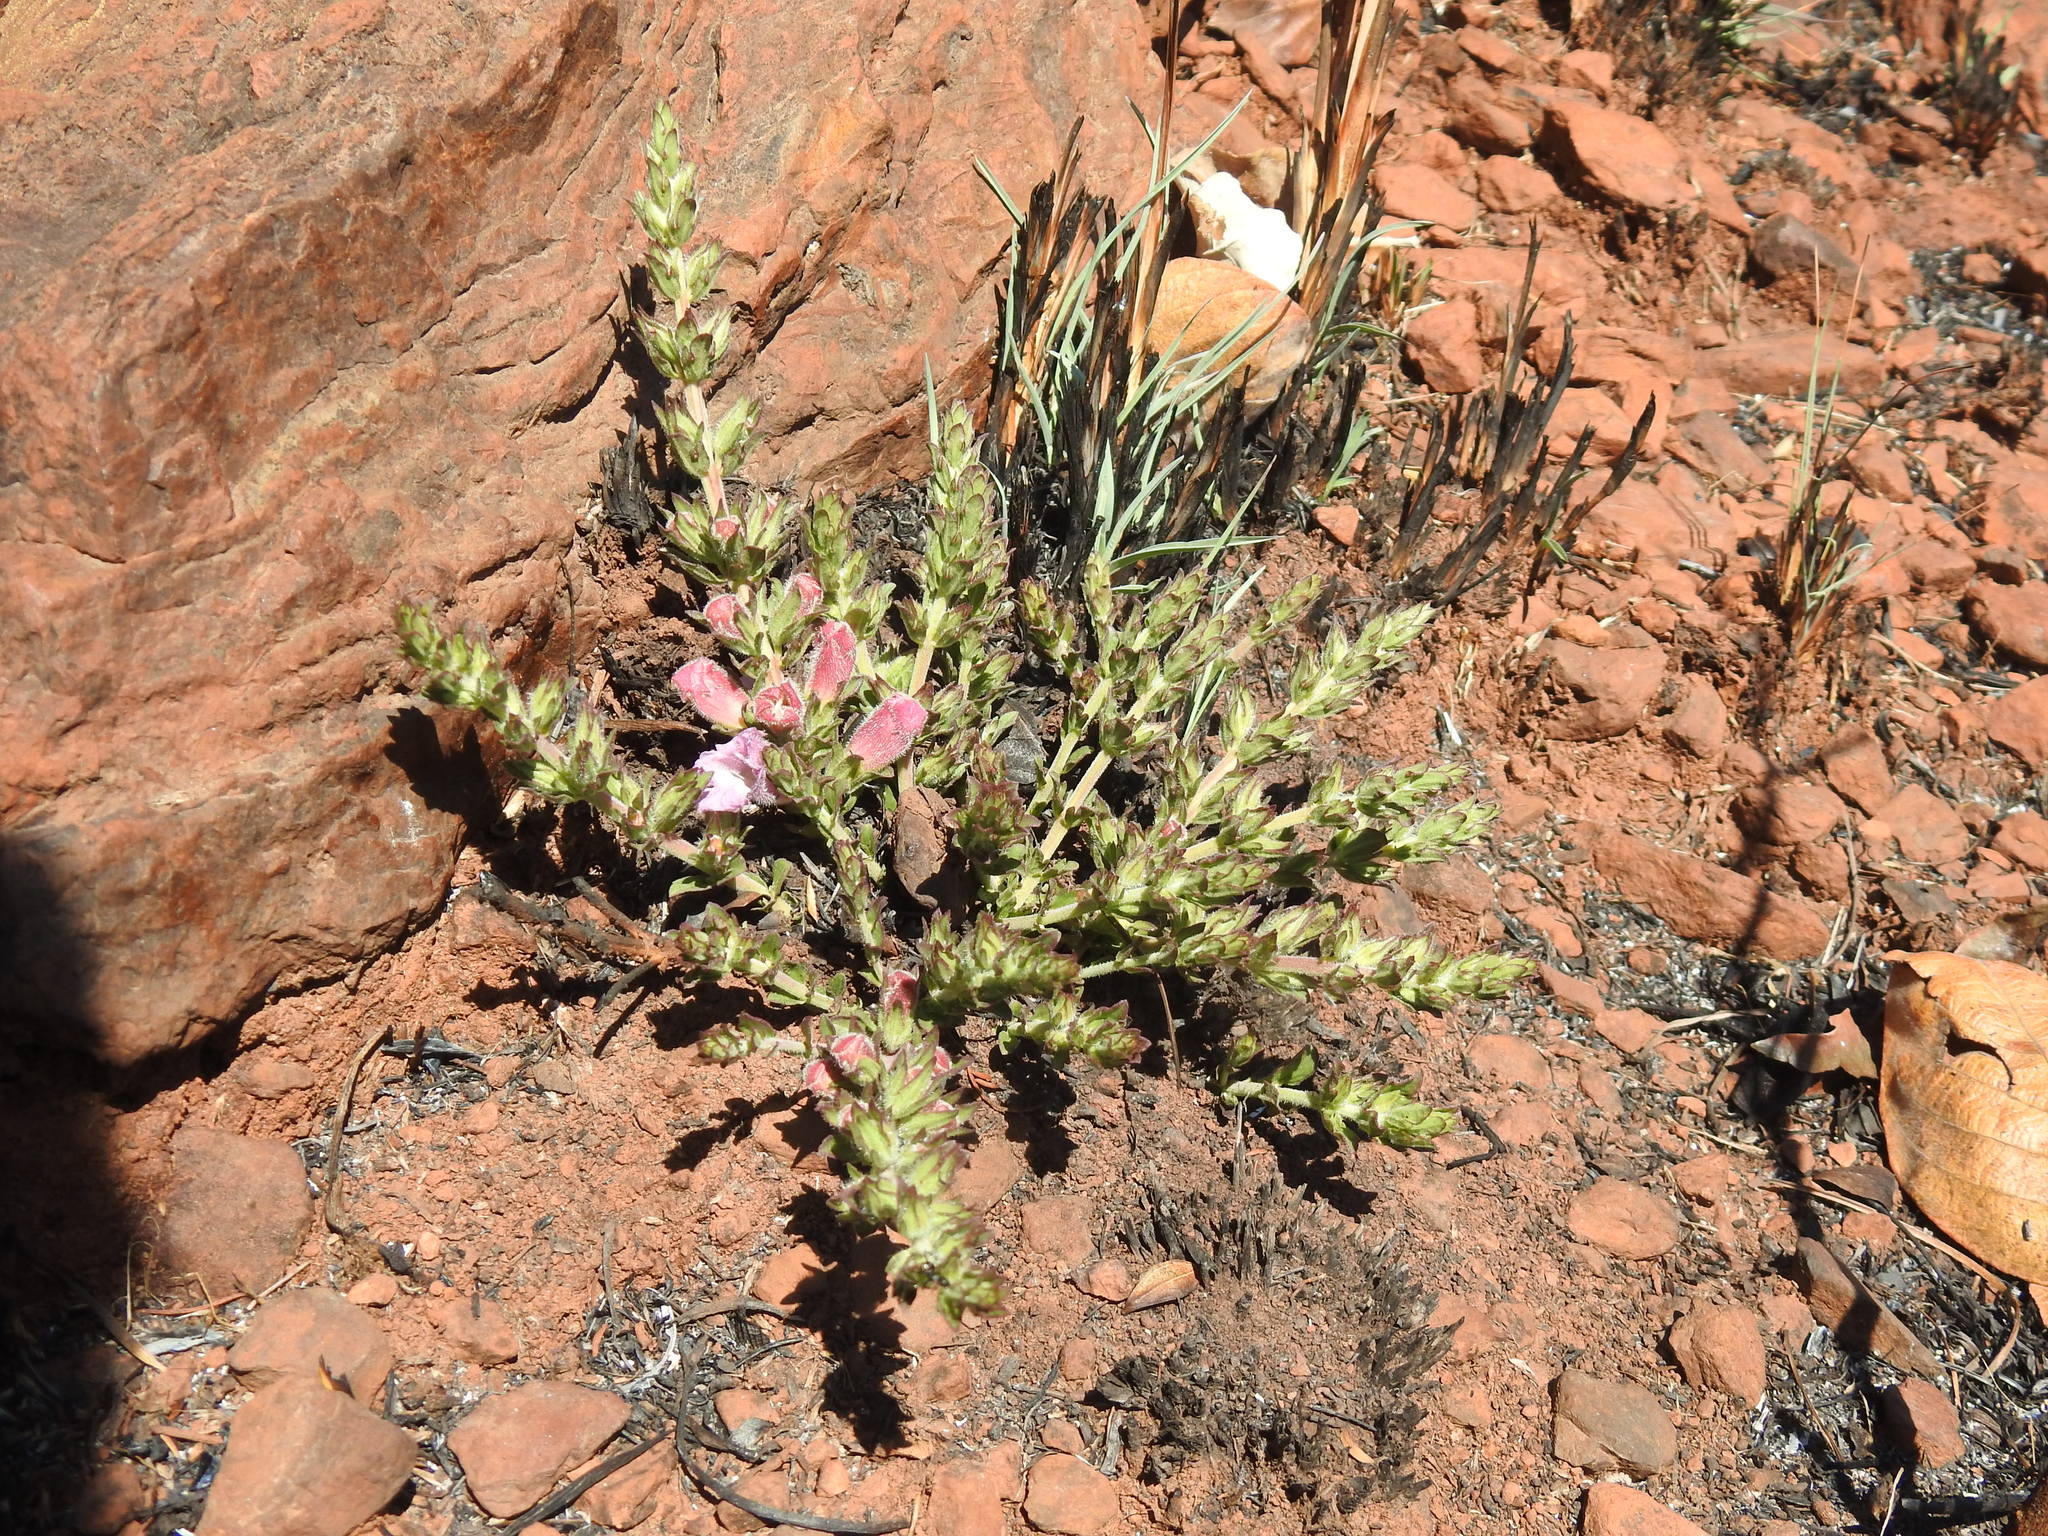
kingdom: Plantae
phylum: Tracheophyta
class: Magnoliopsida
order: Lamiales
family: Orobanchaceae
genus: Graderia
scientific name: Graderia subintegra
